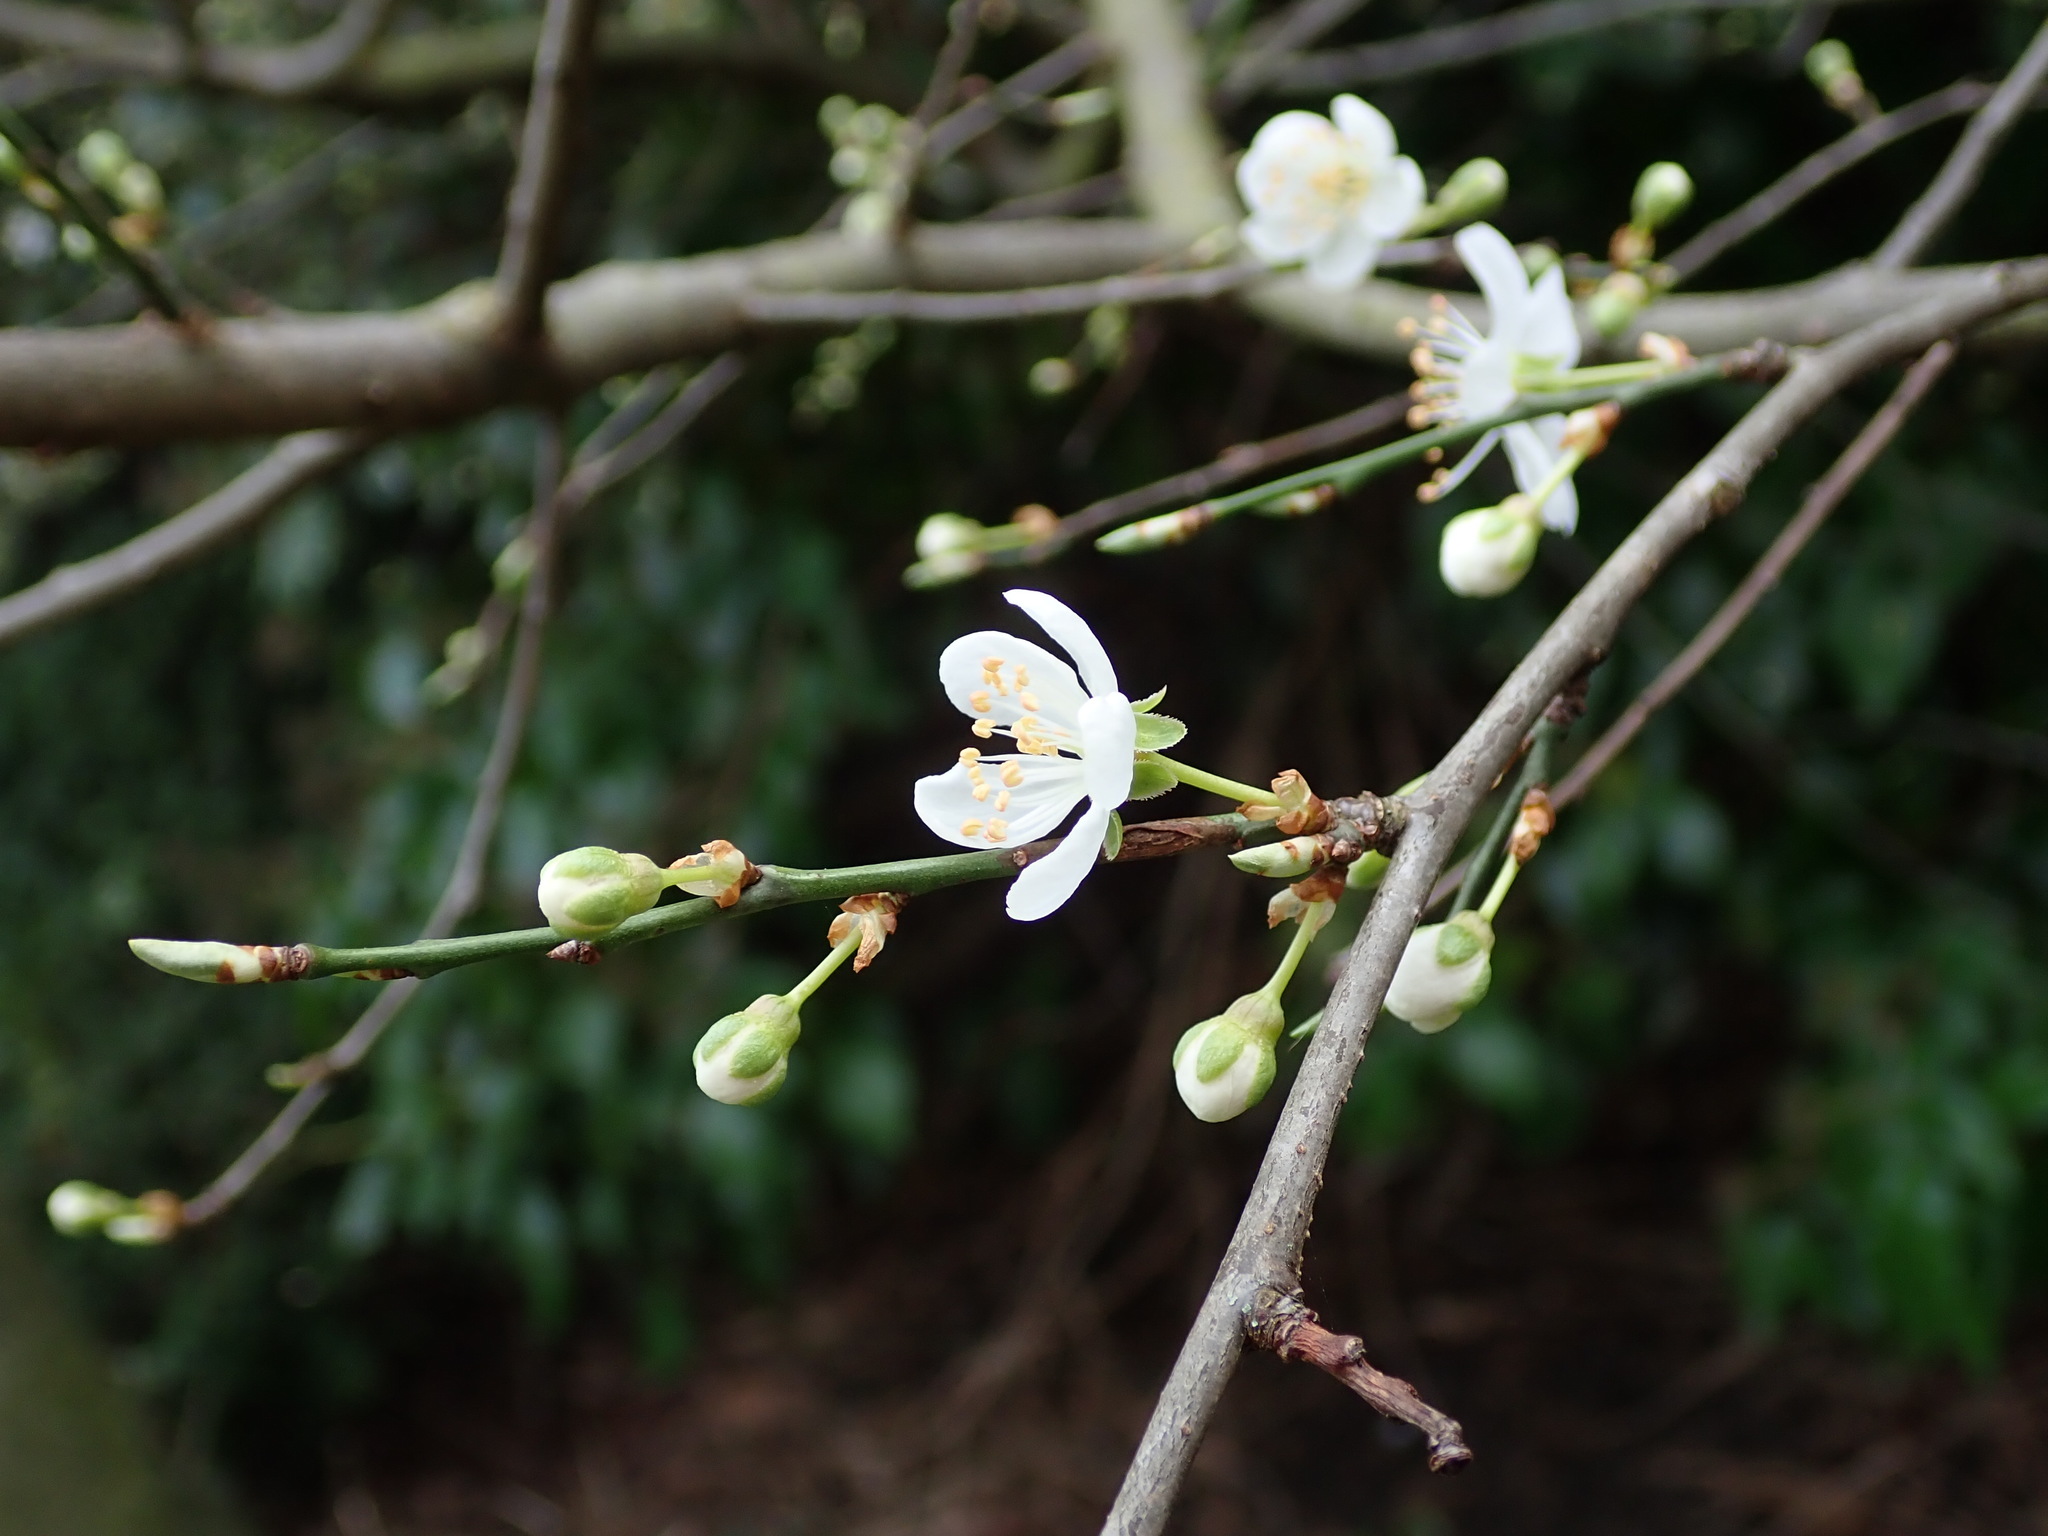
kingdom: Plantae
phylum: Tracheophyta
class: Magnoliopsida
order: Rosales
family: Rosaceae
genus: Prunus
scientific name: Prunus cerasifera
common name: Cherry plum
